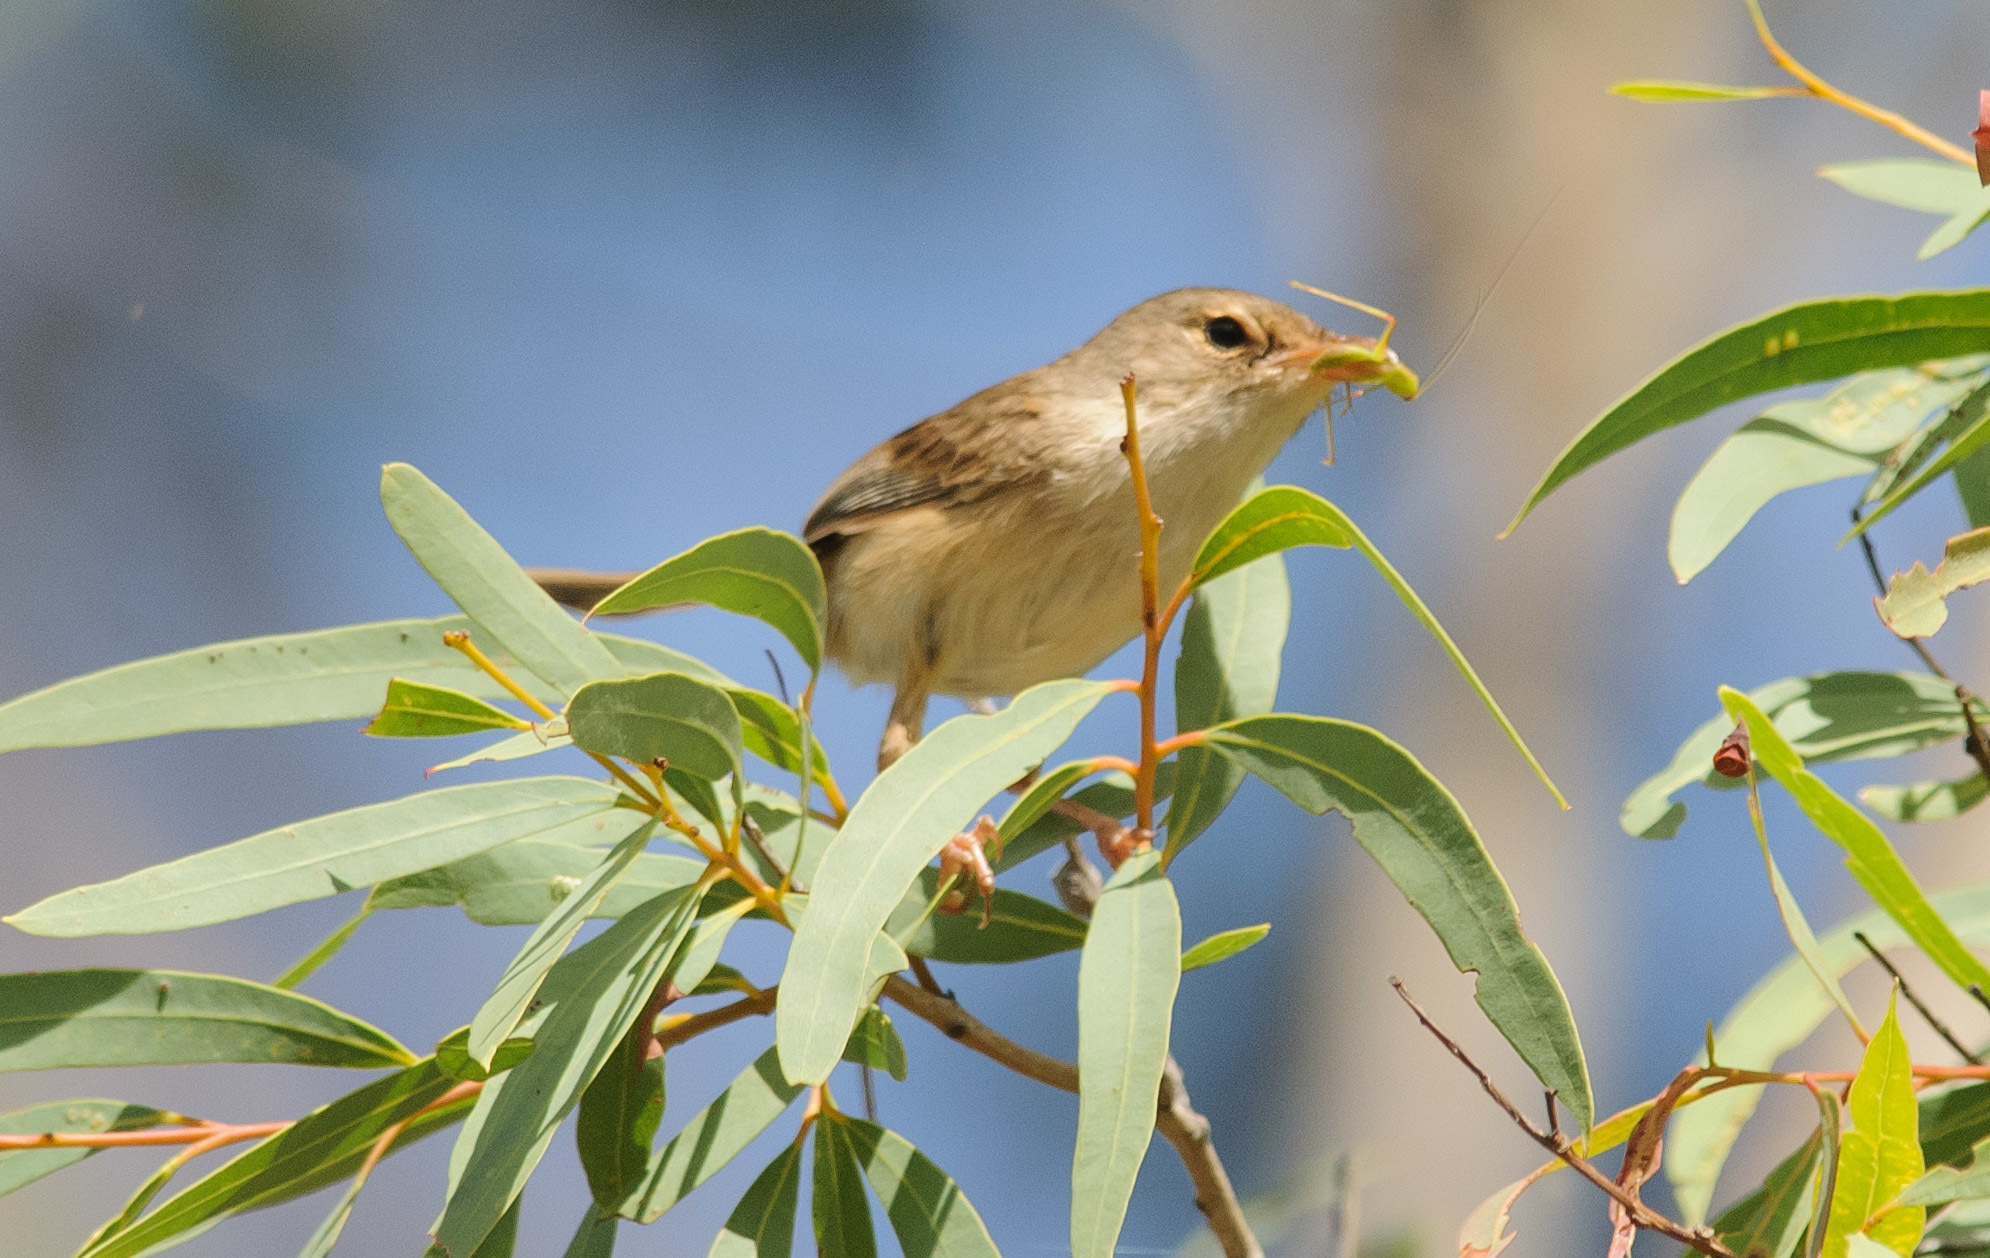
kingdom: Animalia
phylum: Chordata
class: Aves
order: Passeriformes
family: Maluridae
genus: Malurus
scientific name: Malurus melanocephalus
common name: Red-backed fairywren
